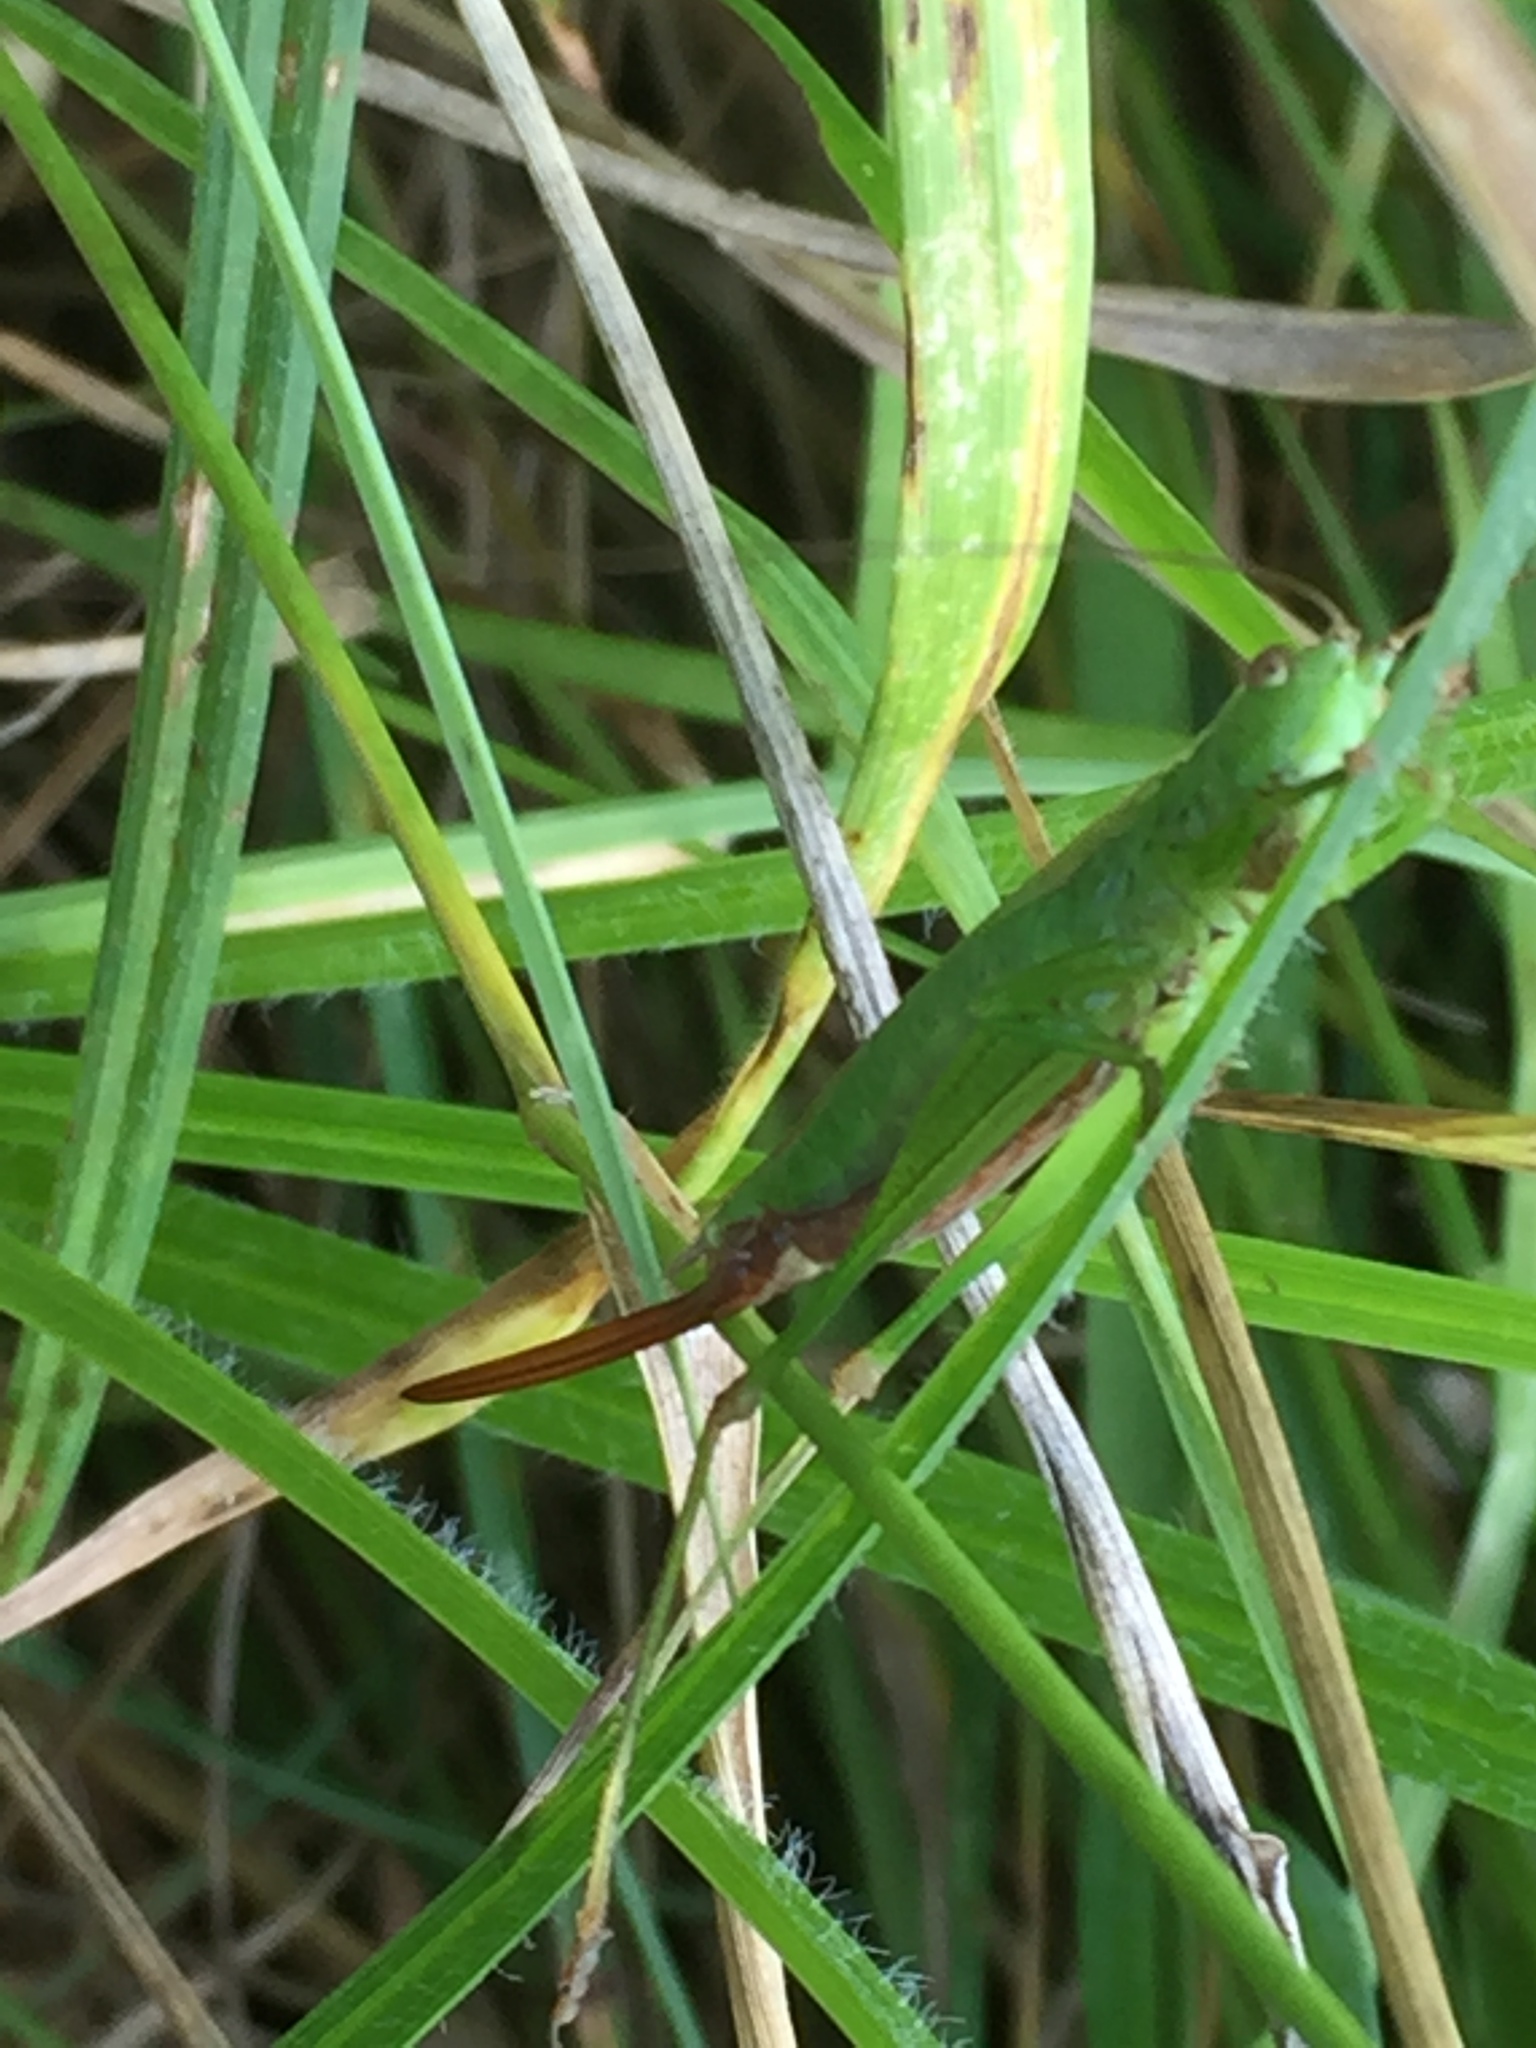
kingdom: Animalia
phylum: Arthropoda
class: Insecta
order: Orthoptera
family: Tettigoniidae
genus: Conocephalus
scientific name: Conocephalus fuscus
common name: Long-winged conehead
